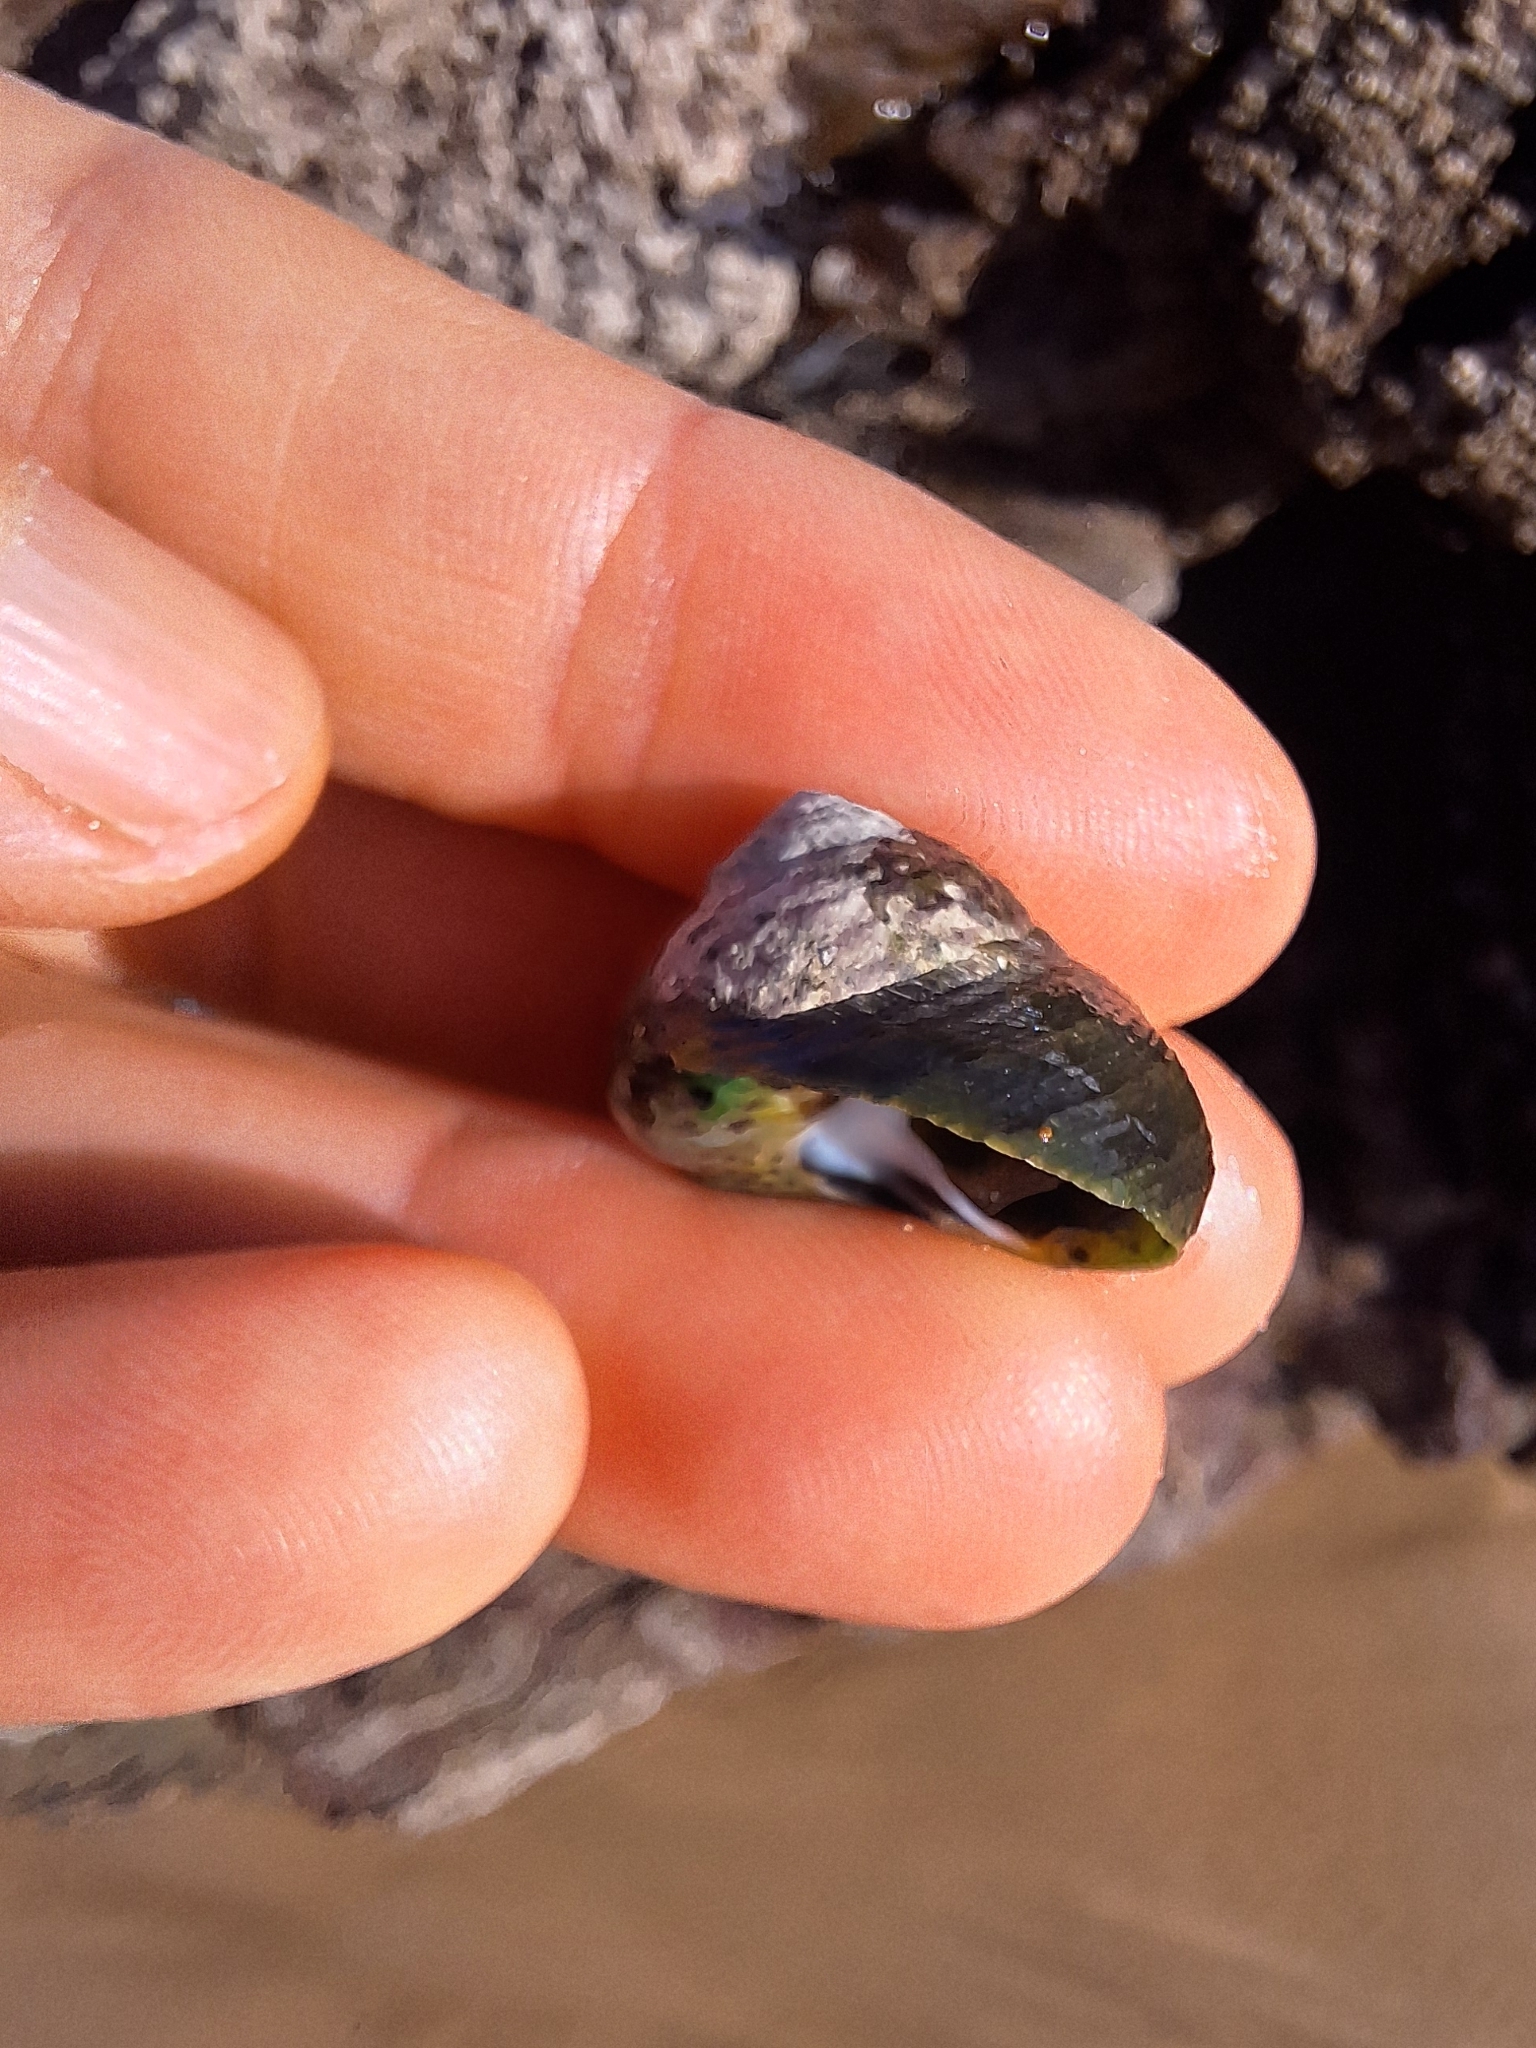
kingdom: Animalia
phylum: Mollusca
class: Gastropoda
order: Trochida
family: Trochidae
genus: Phorcus
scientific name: Phorcus sauciatus
